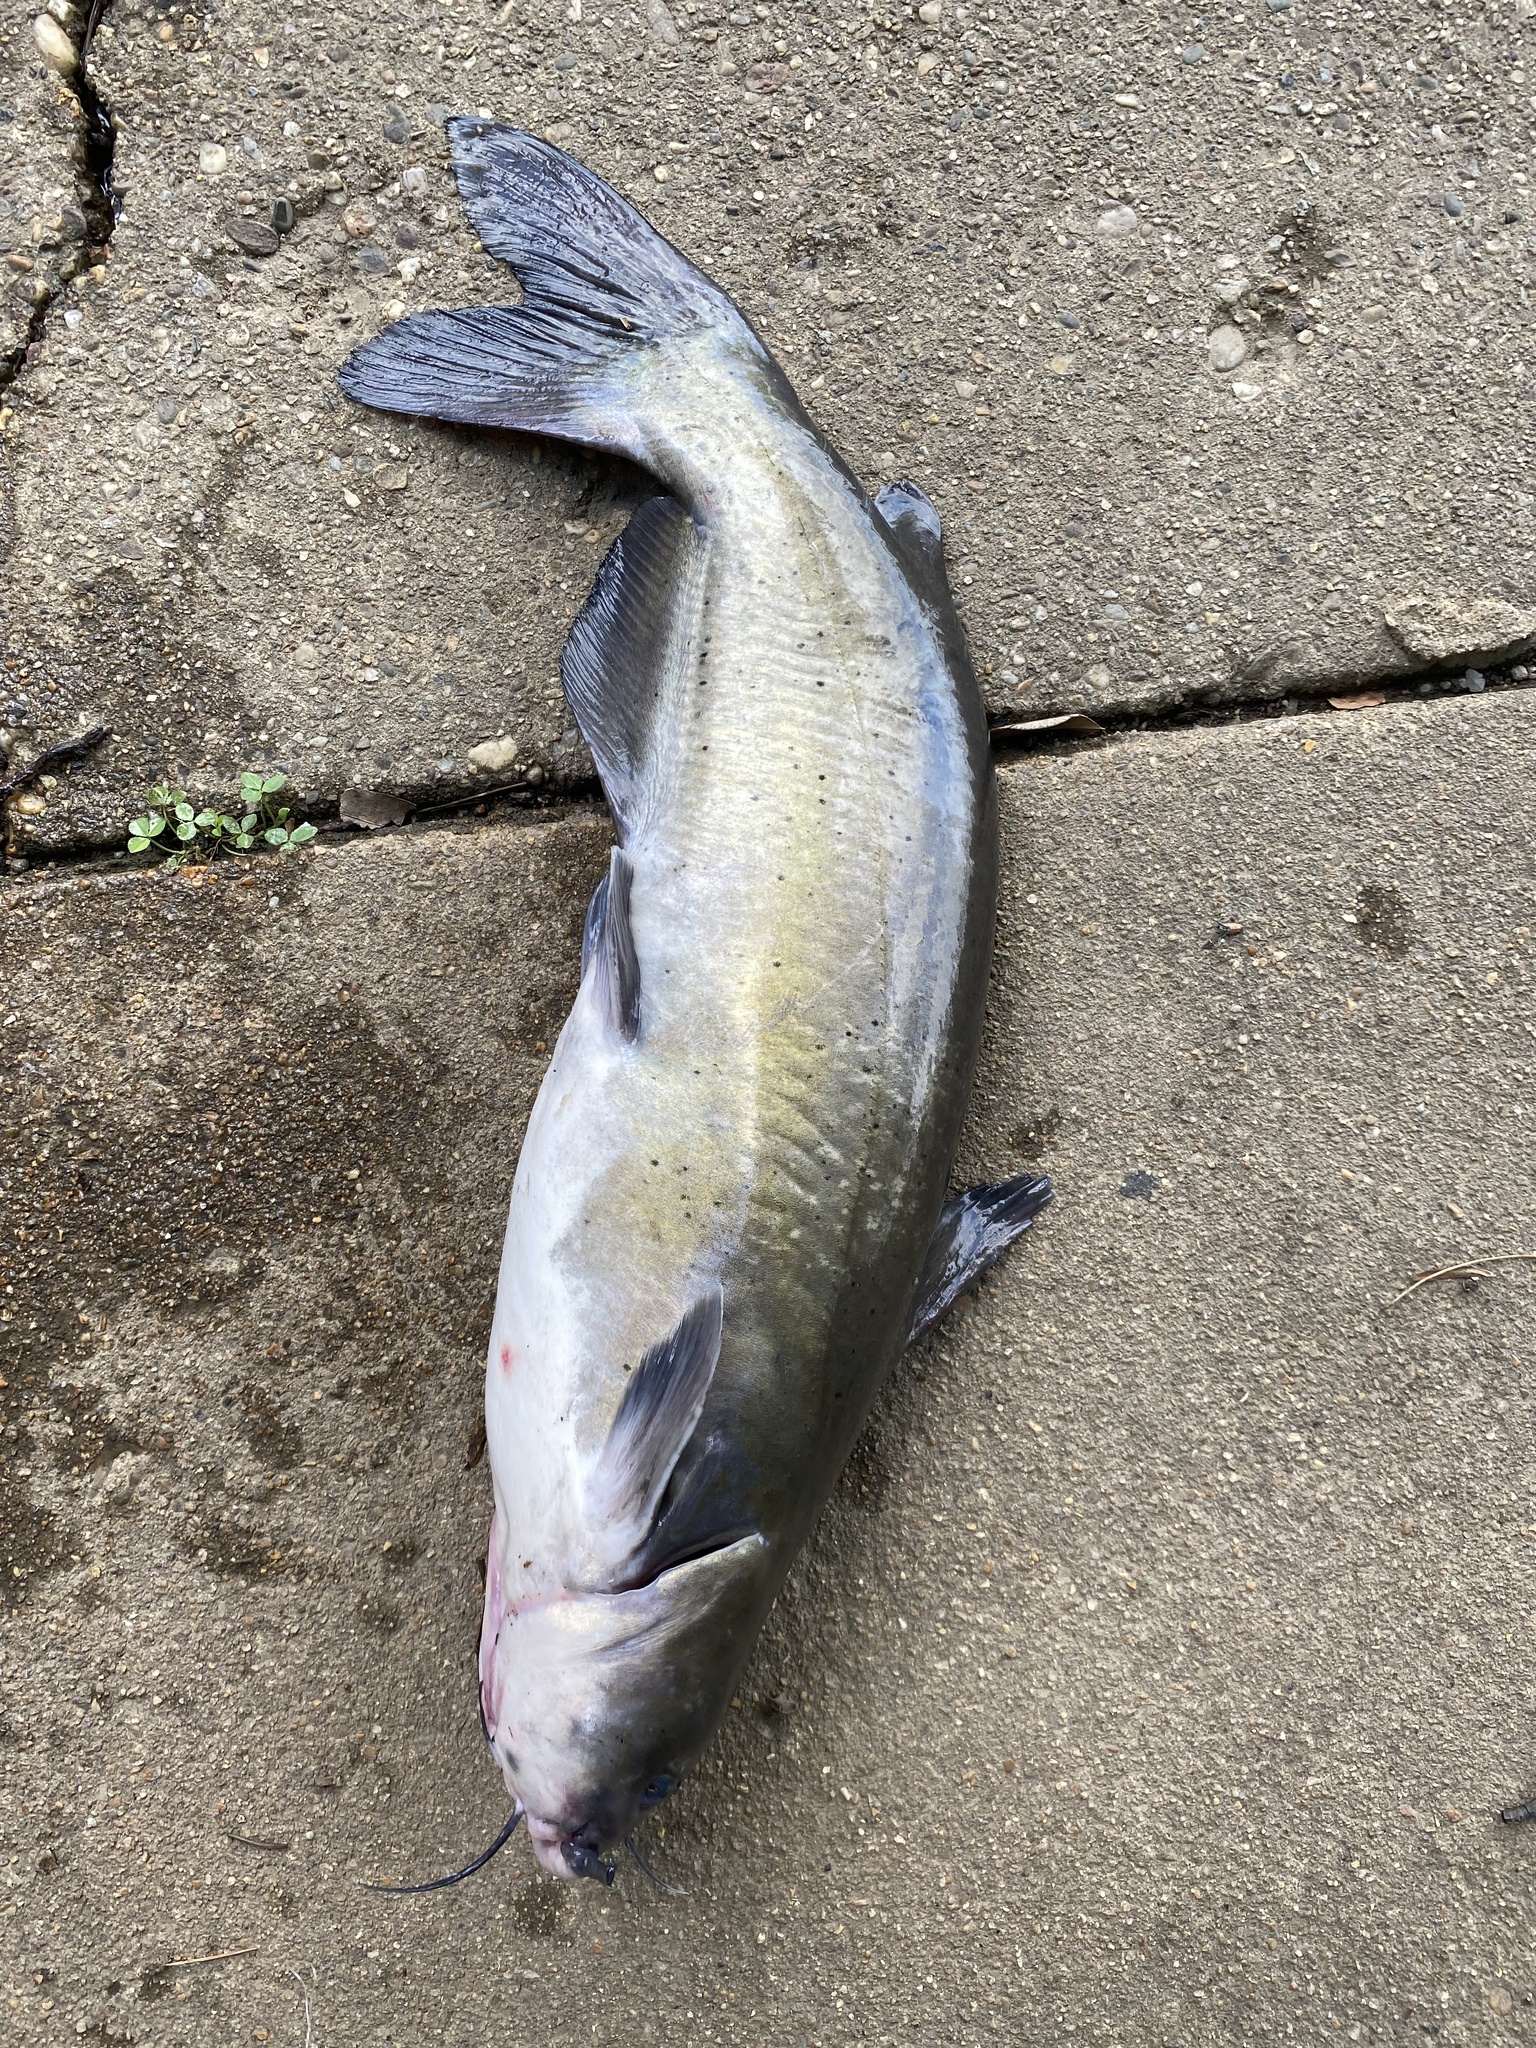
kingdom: Animalia
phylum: Chordata
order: Siluriformes
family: Ictaluridae
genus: Ictalurus
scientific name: Ictalurus punctatus
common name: Channel catfish
